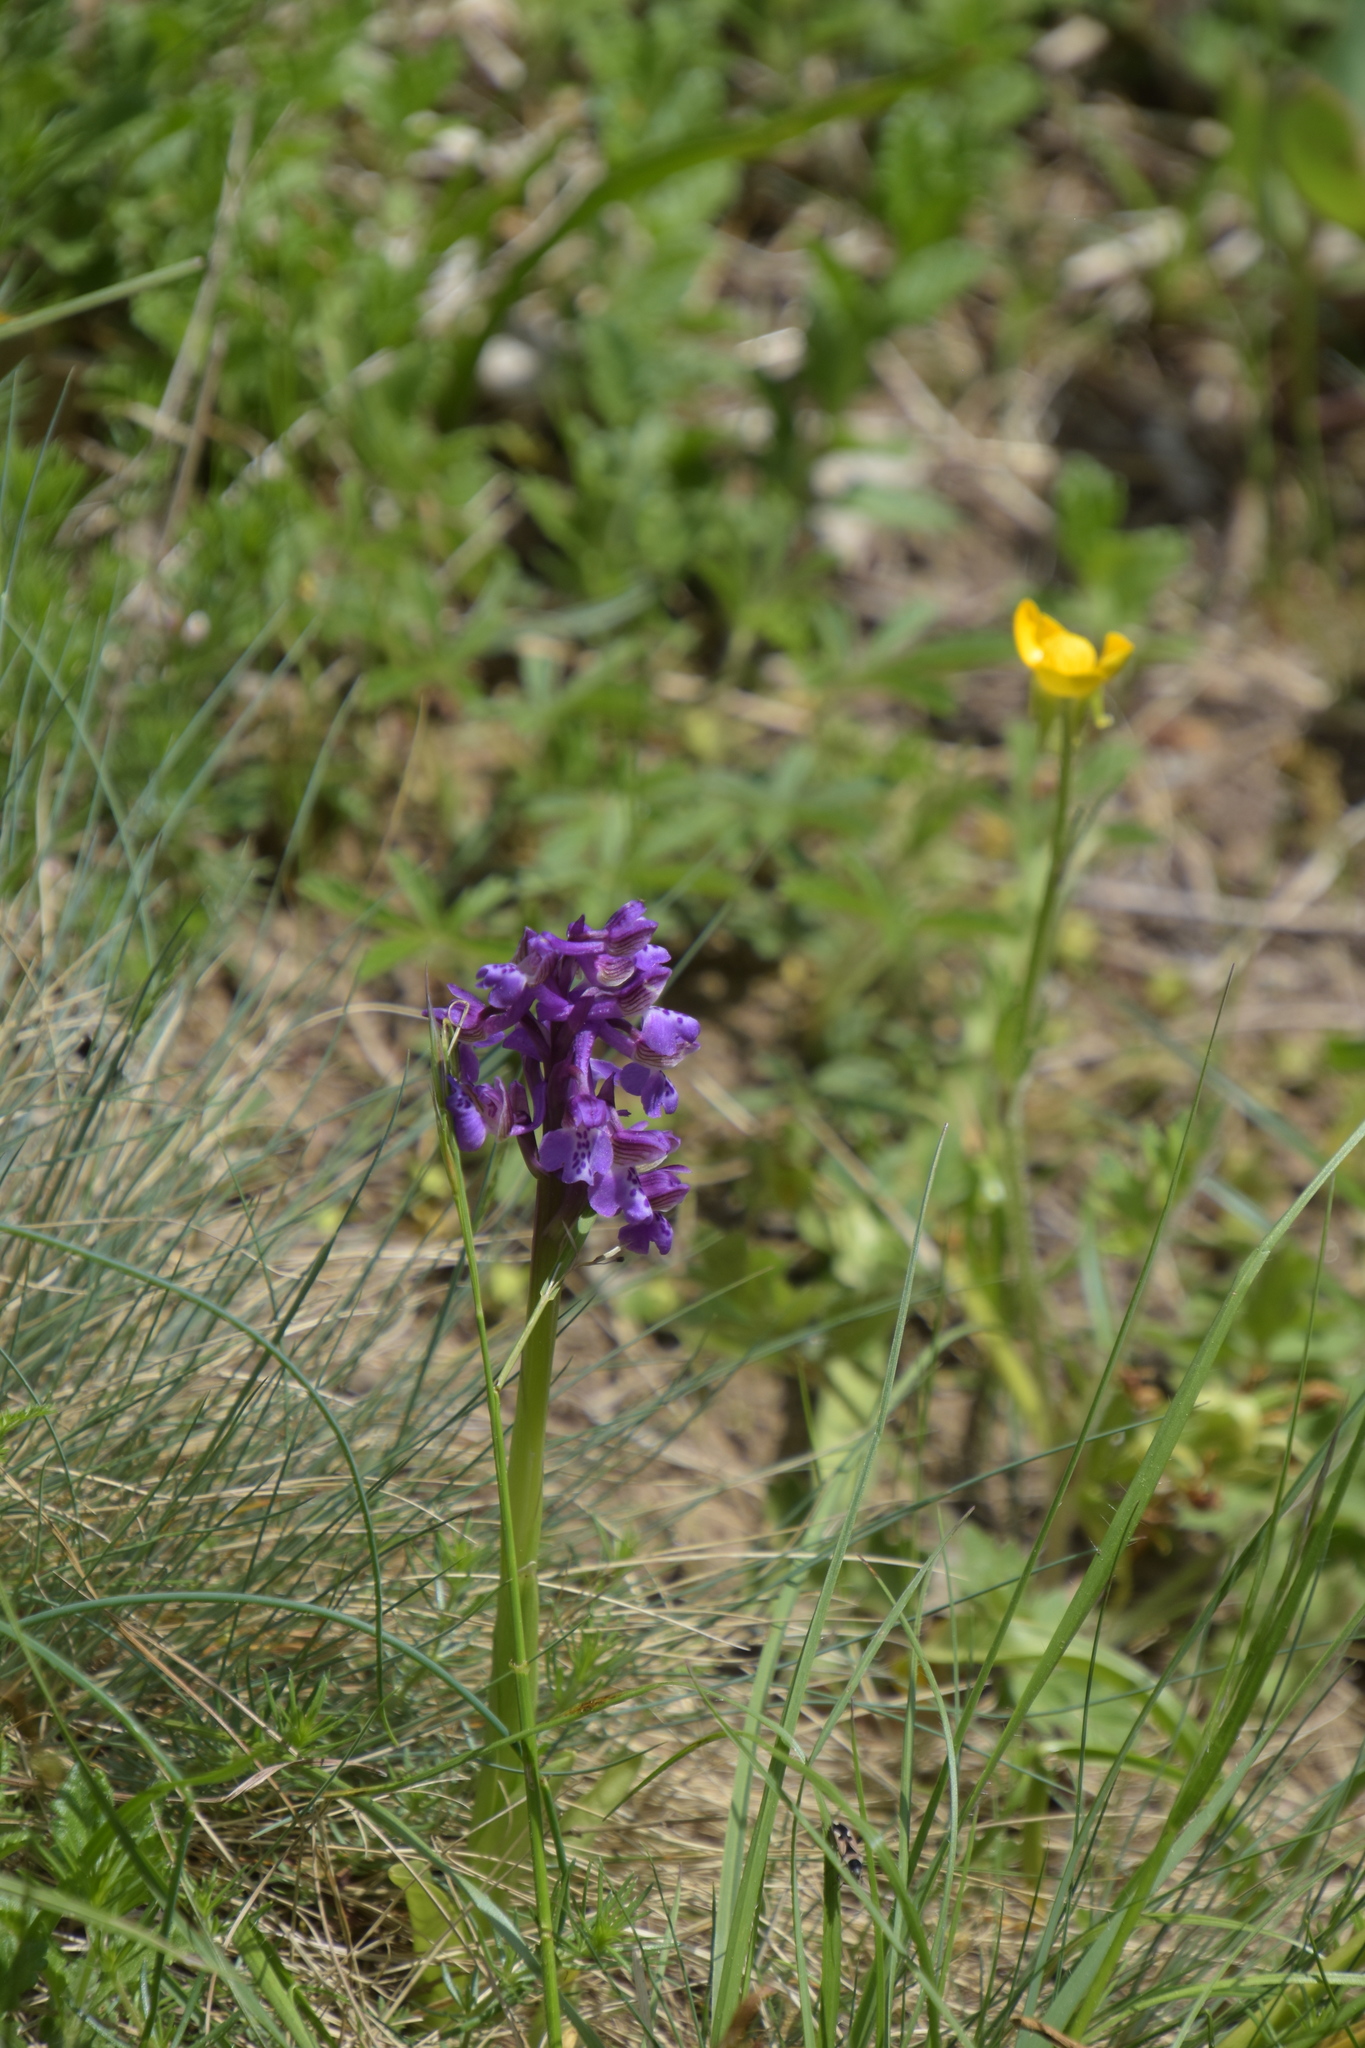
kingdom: Plantae
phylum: Tracheophyta
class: Liliopsida
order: Asparagales
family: Orchidaceae
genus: Anacamptis
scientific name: Anacamptis morio
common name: Green-winged orchid
